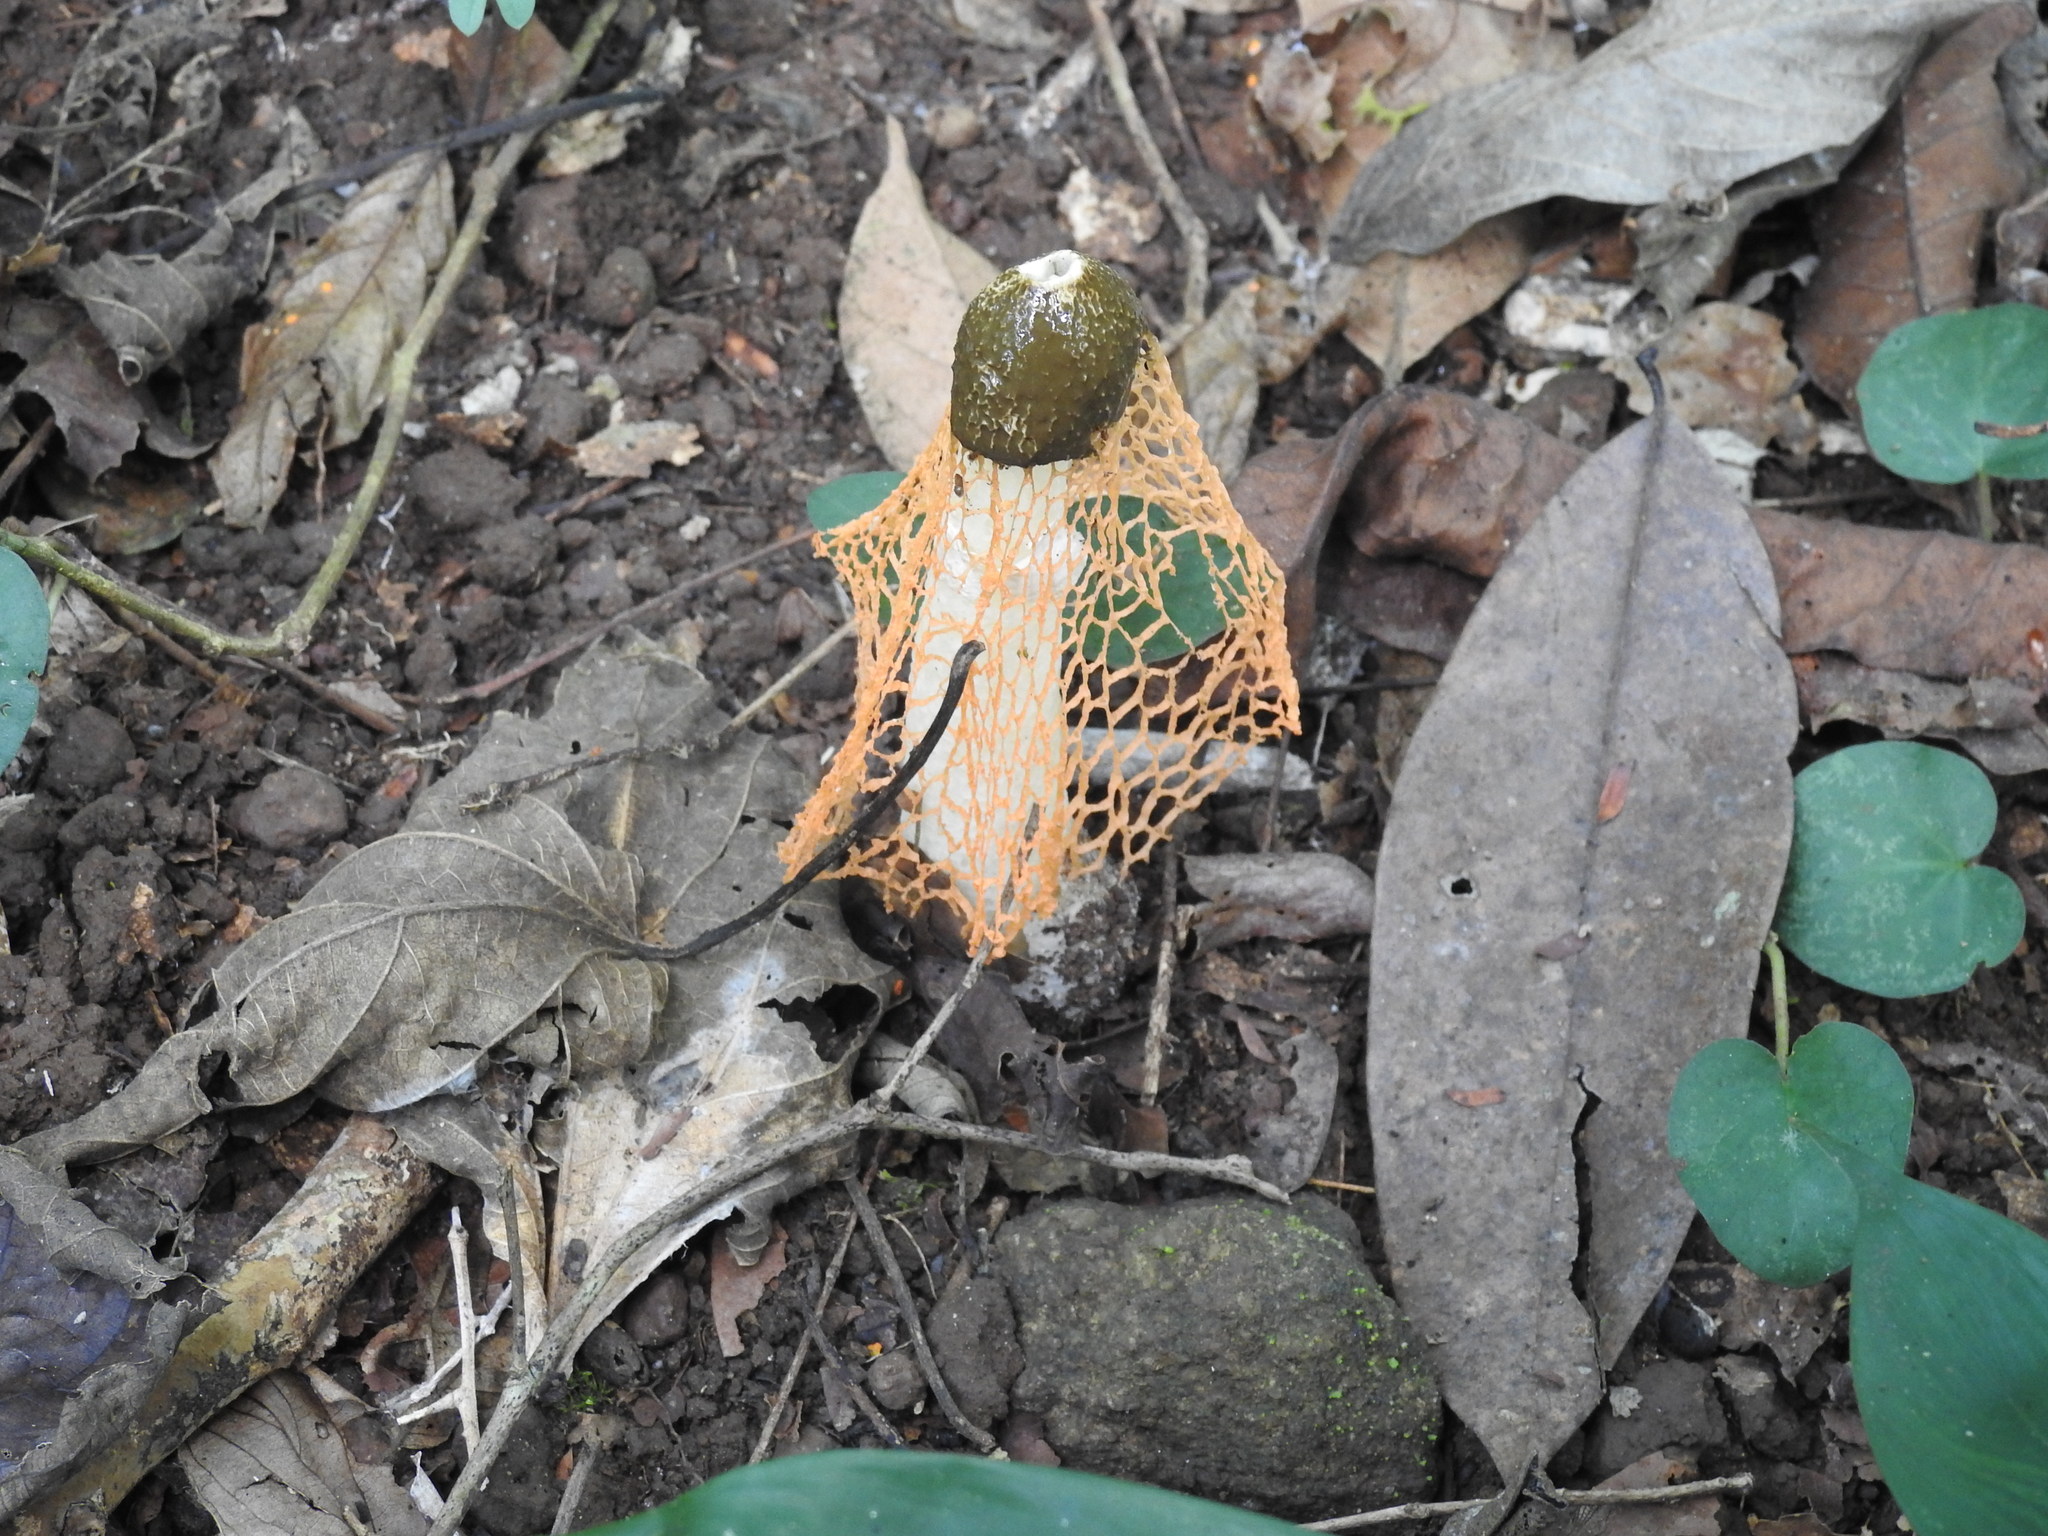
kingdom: Fungi
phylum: Basidiomycota
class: Agaricomycetes
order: Phallales
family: Phallaceae
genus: Phallus
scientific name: Phallus luteus
